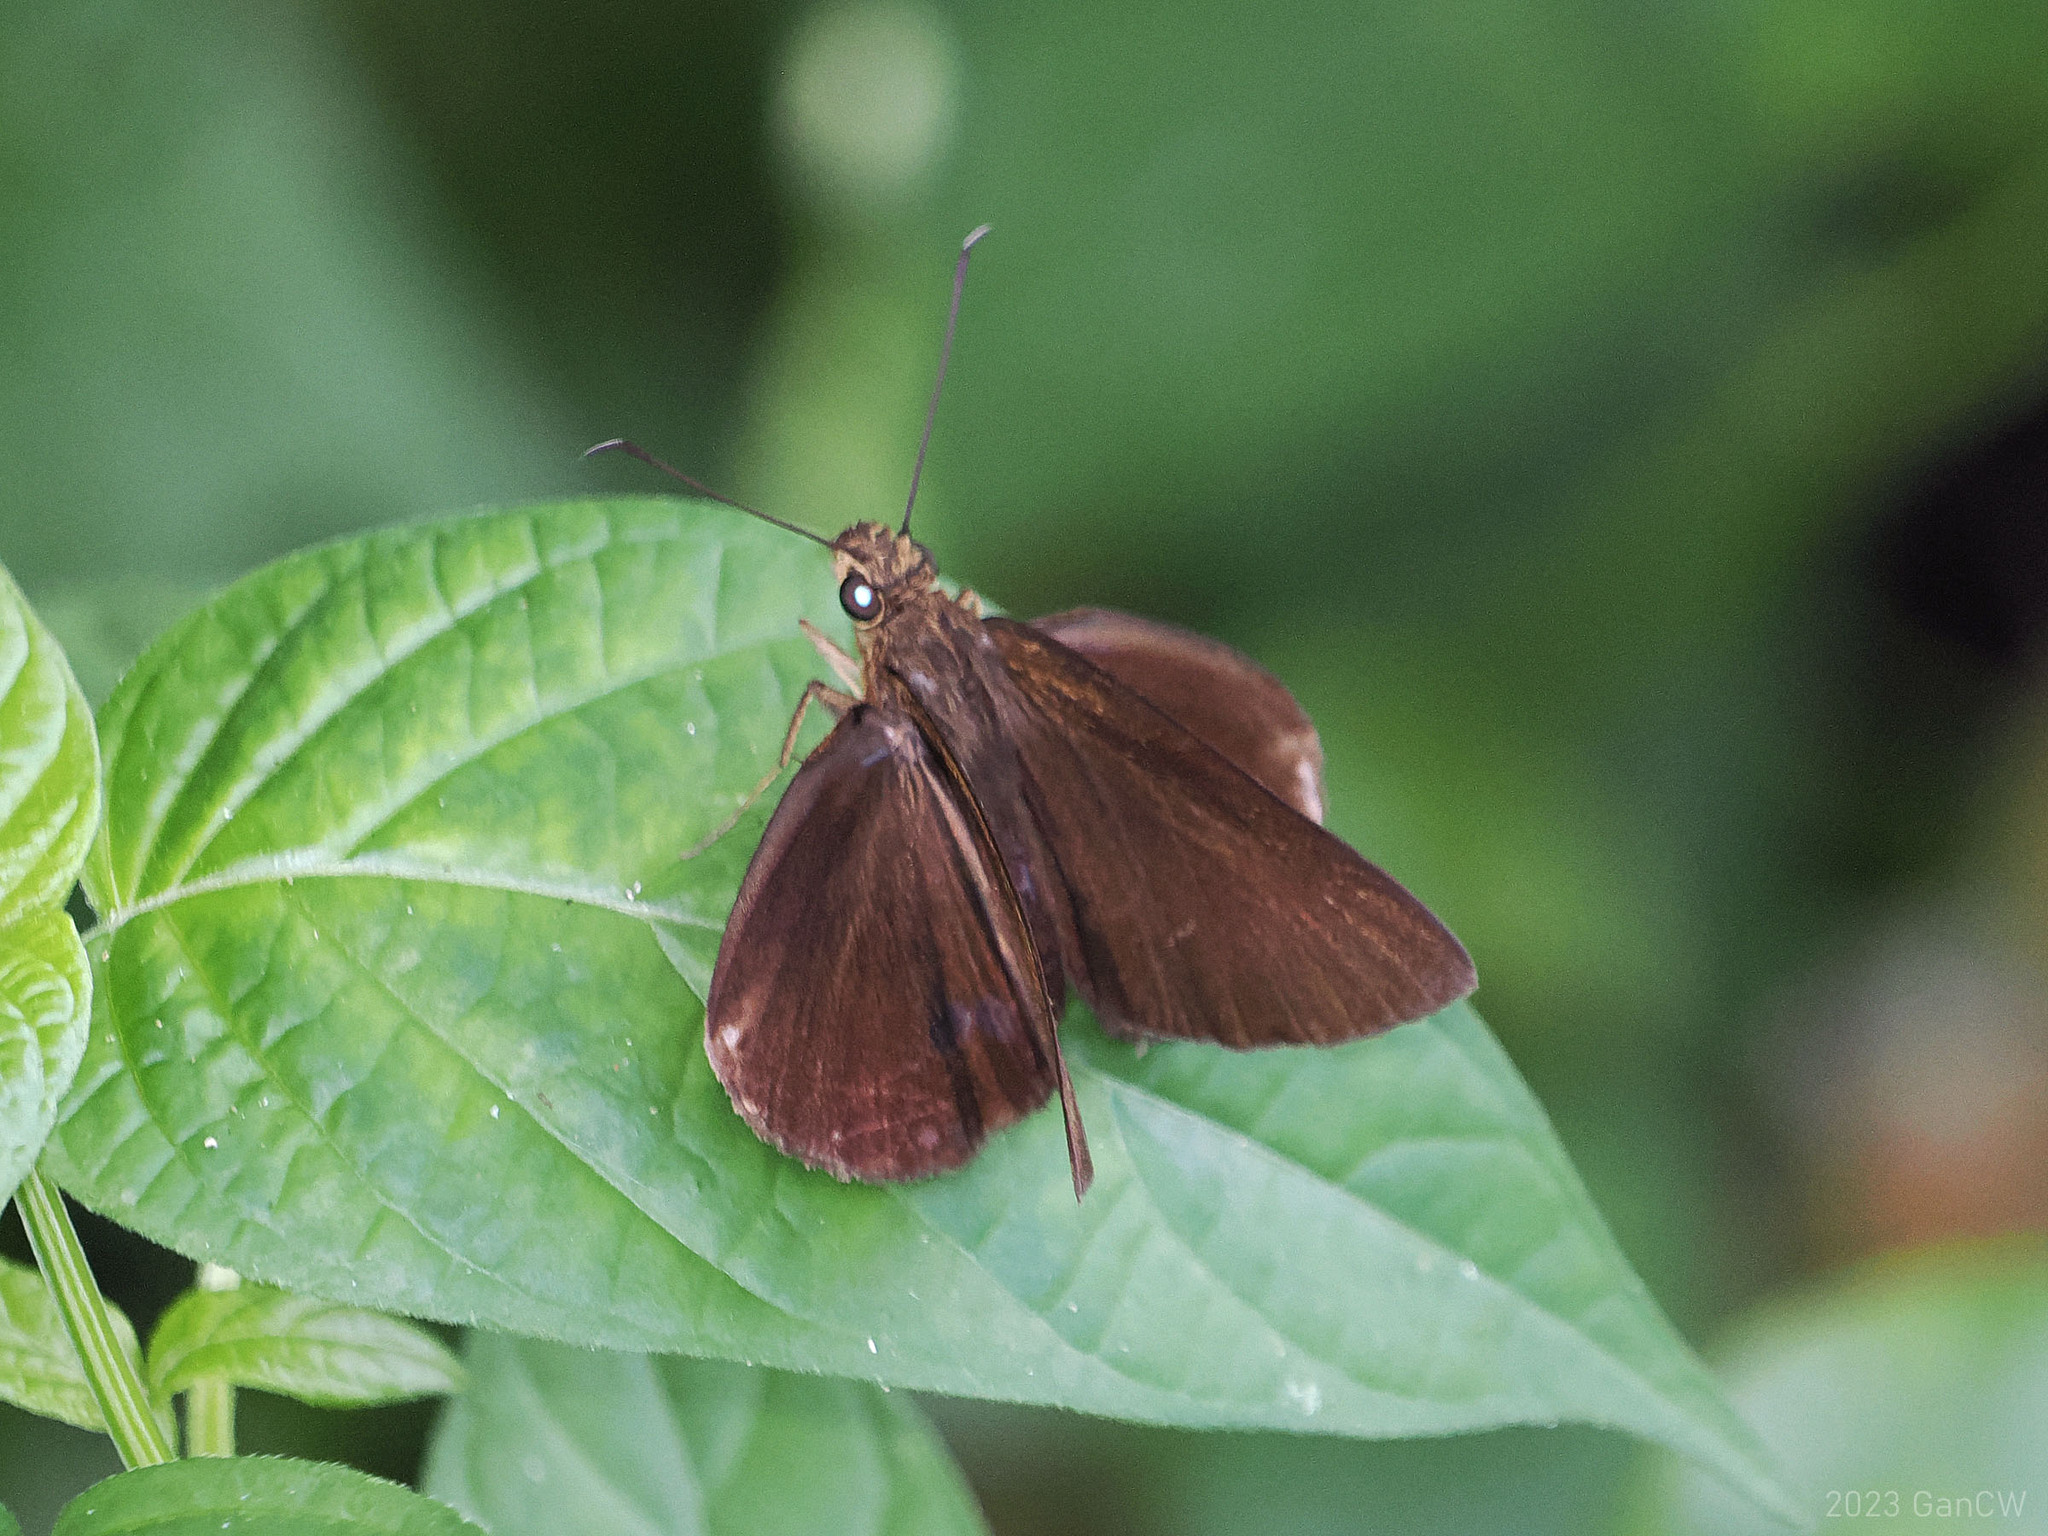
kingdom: Animalia
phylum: Arthropoda
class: Insecta
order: Lepidoptera
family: Hesperiidae
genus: Ancistroides
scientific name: Ancistroides nigrita
